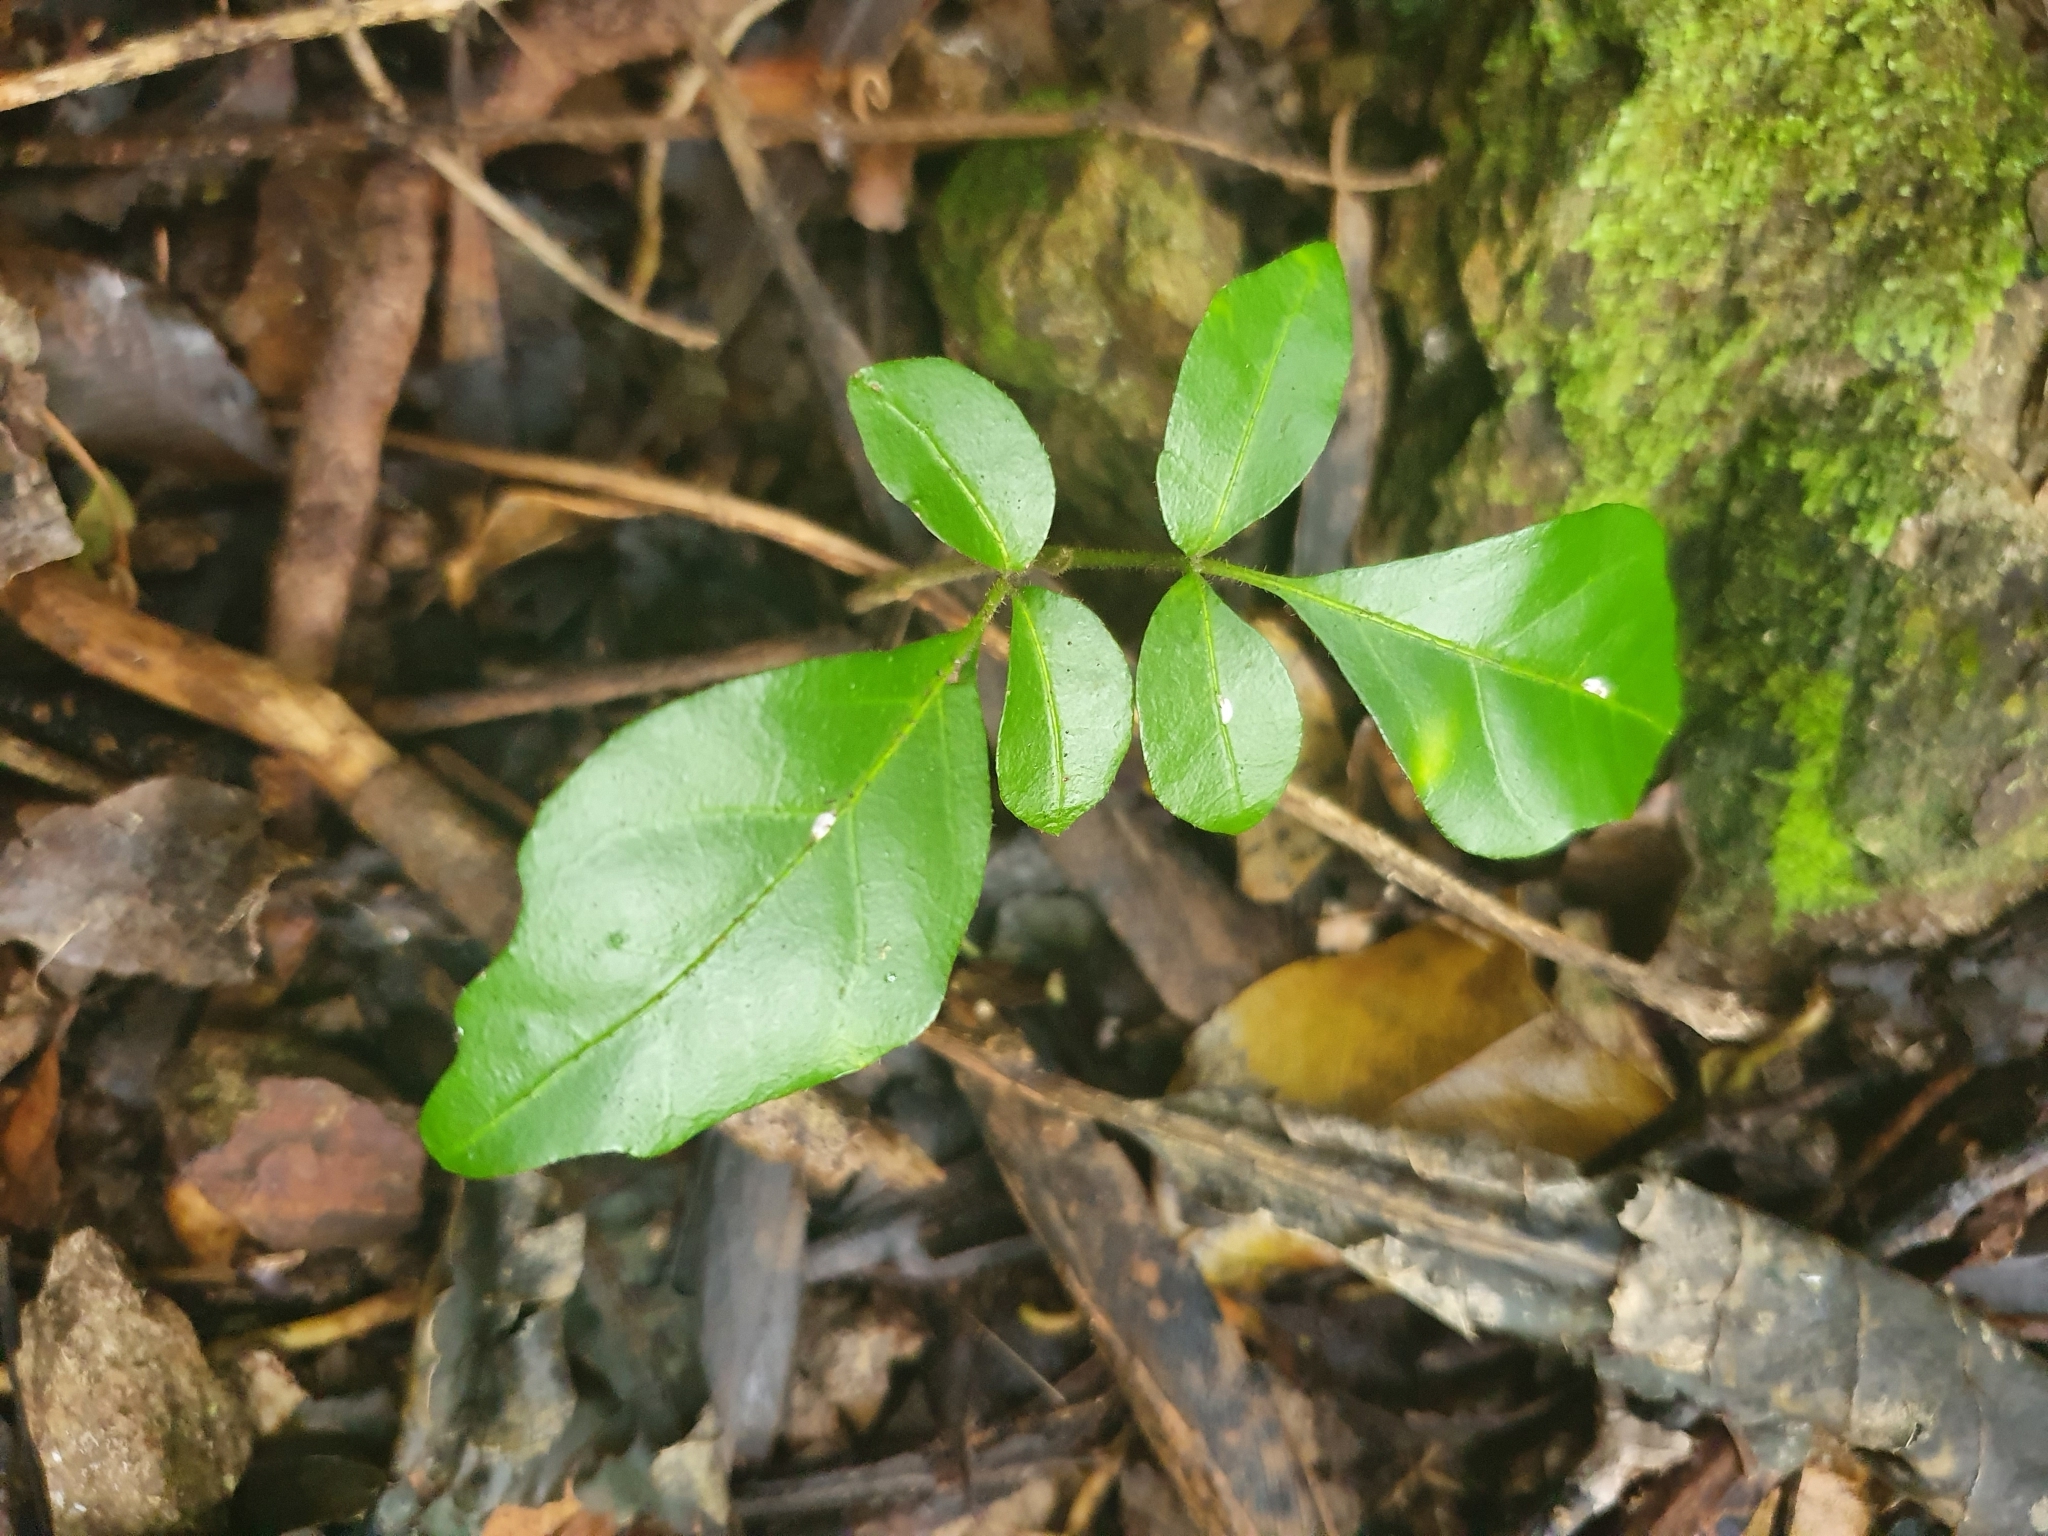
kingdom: Plantae
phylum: Tracheophyta
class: Magnoliopsida
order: Sapindales
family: Meliaceae
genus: Didymocheton
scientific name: Didymocheton spectabilis
